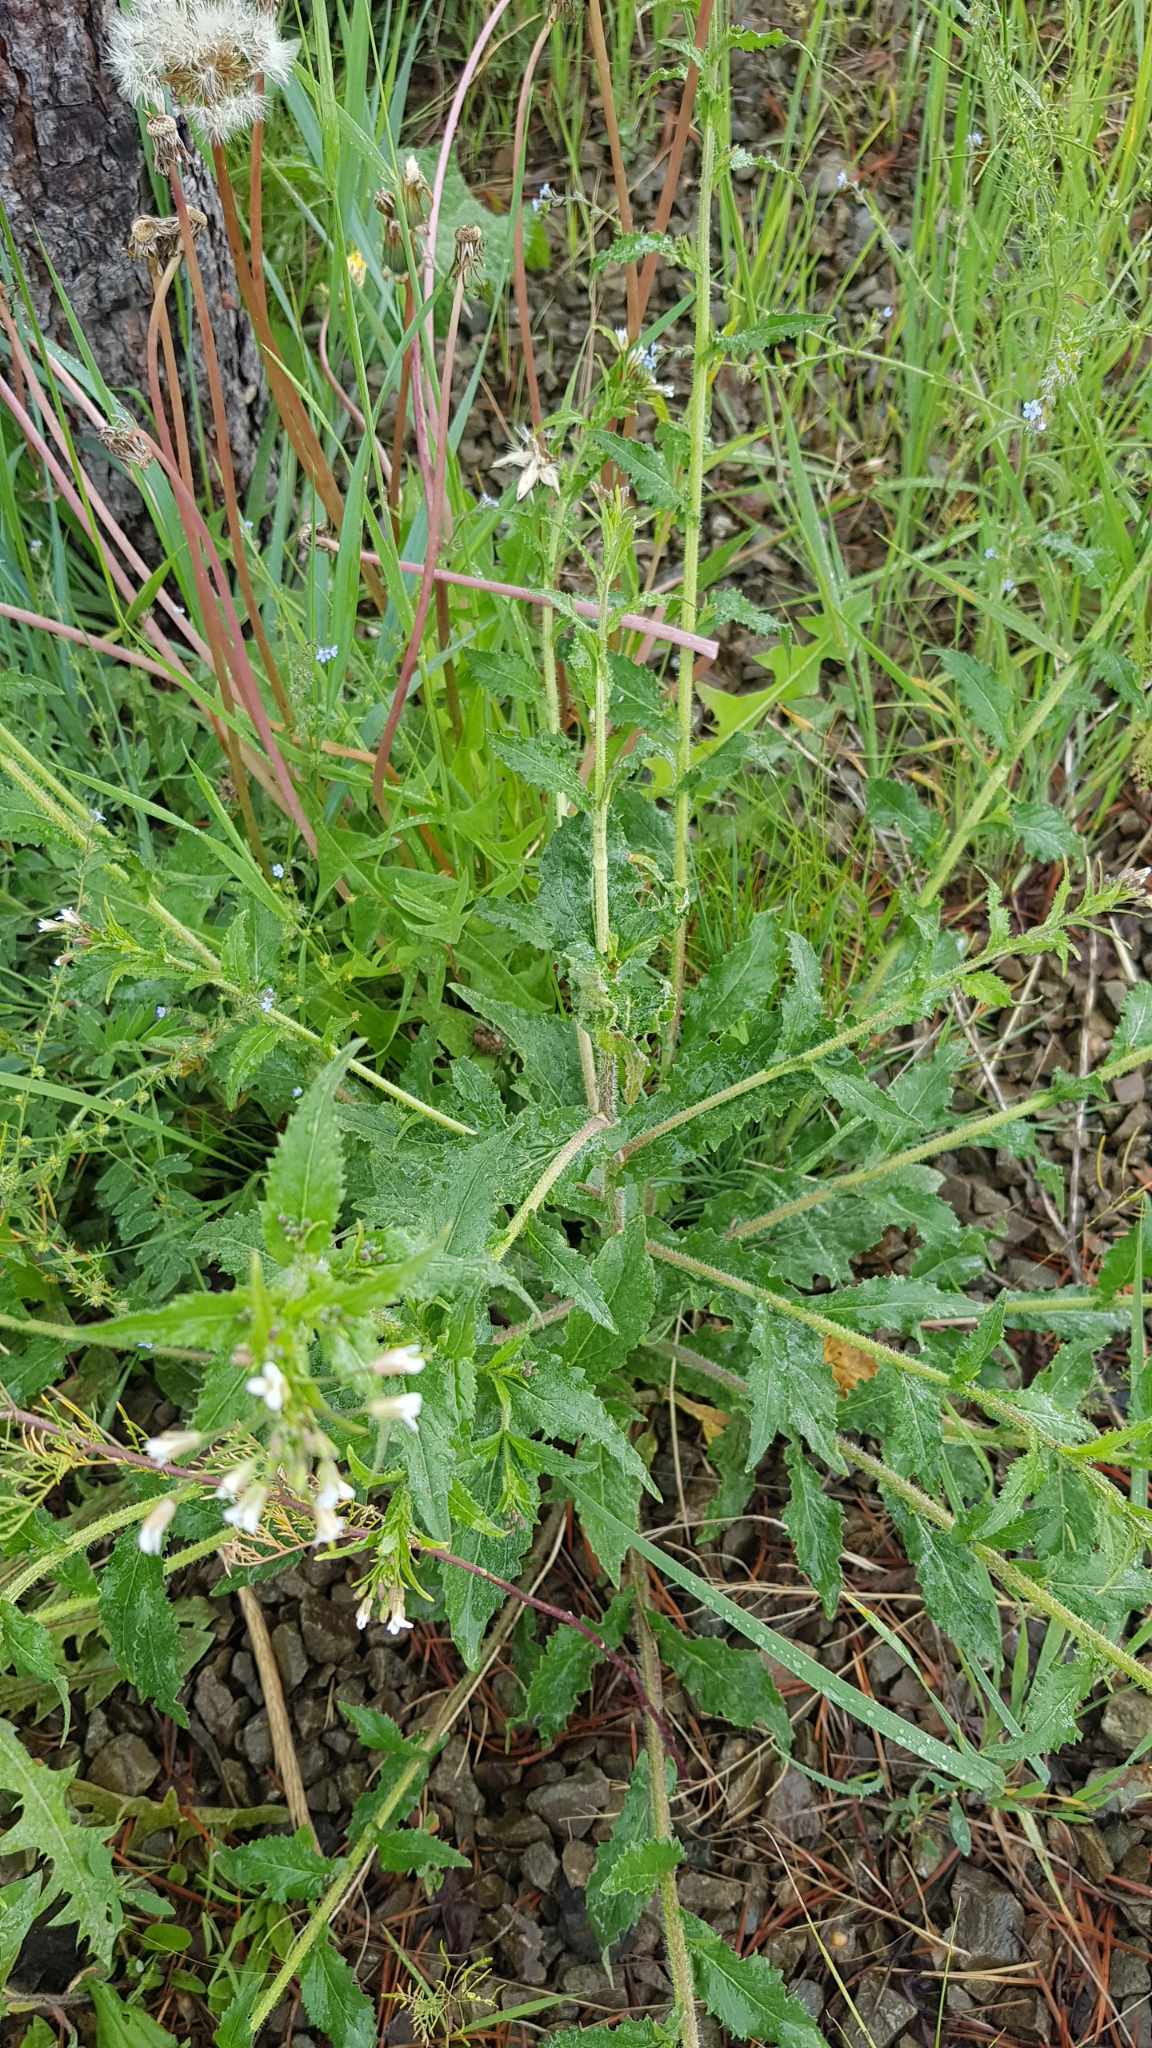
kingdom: Plantae
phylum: Tracheophyta
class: Magnoliopsida
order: Brassicales
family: Brassicaceae
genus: Catolobus
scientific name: Catolobus pendulus
